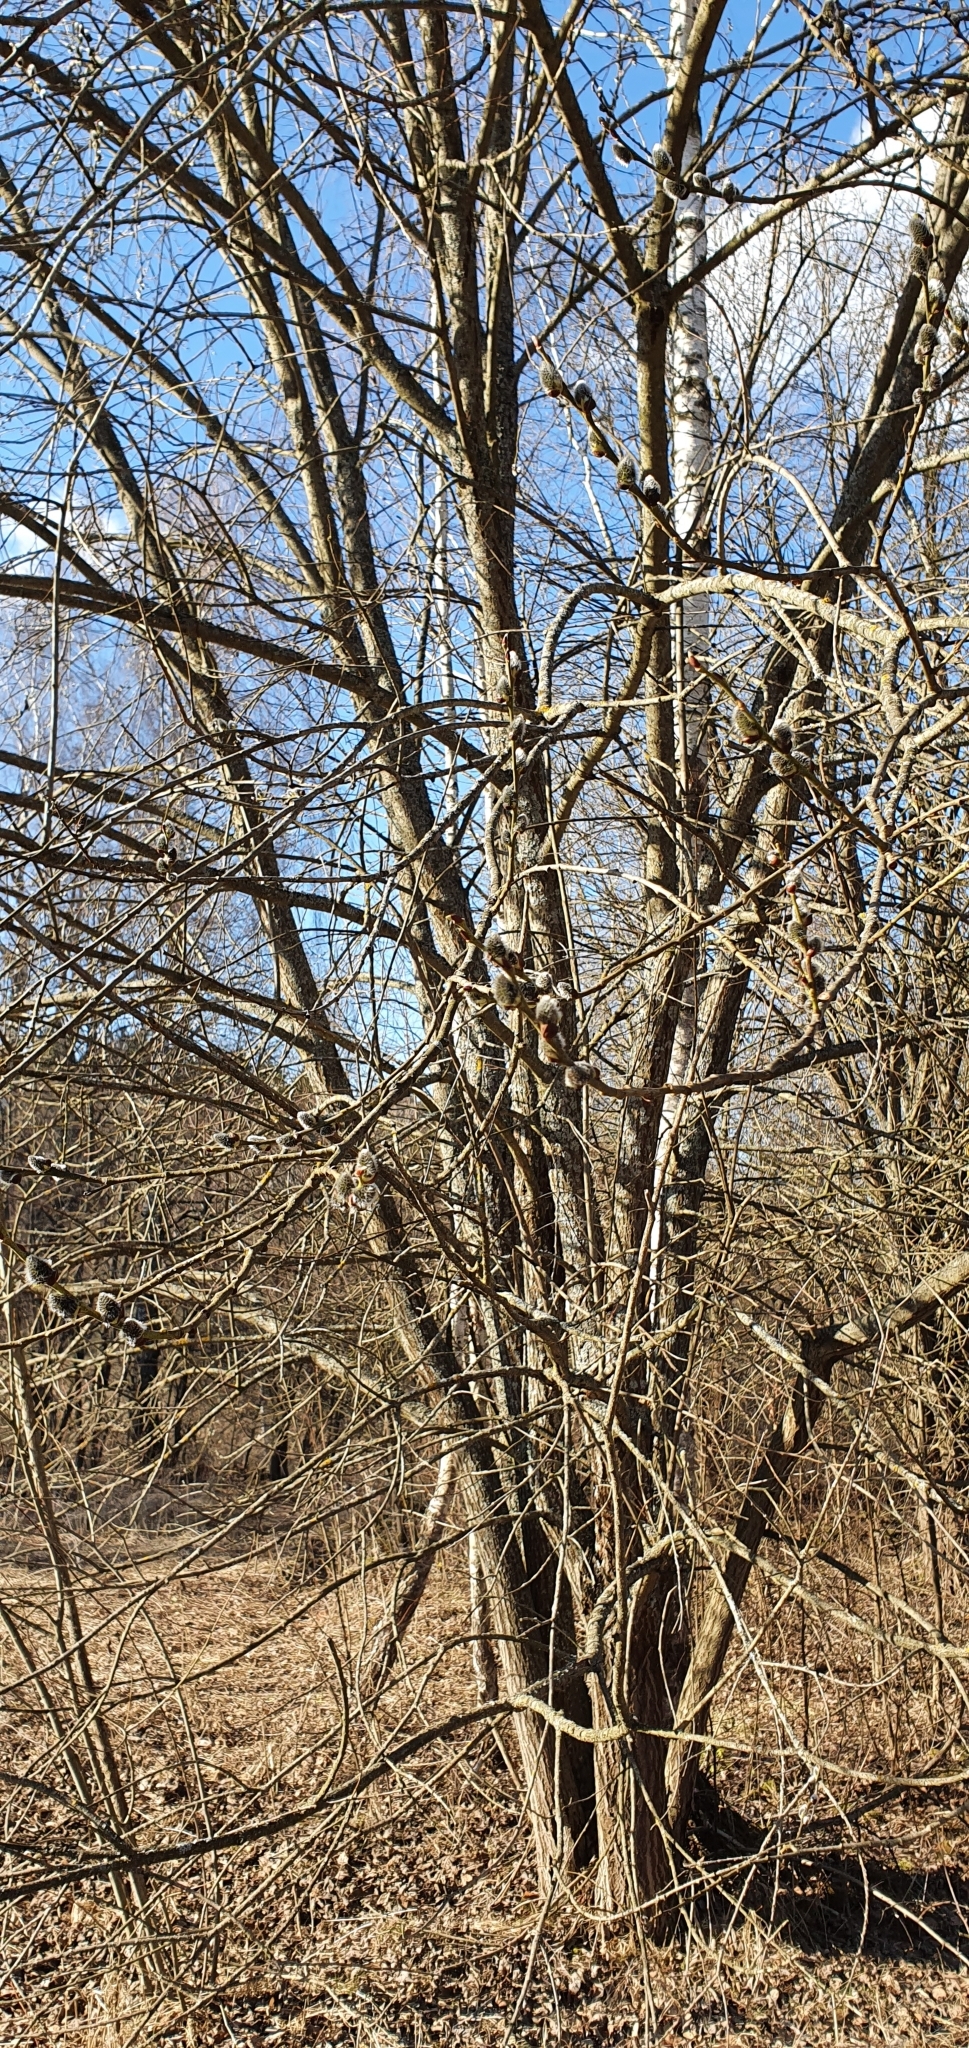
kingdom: Plantae
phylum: Tracheophyta
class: Magnoliopsida
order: Malpighiales
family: Salicaceae
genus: Salix
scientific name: Salix caprea
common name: Goat willow
